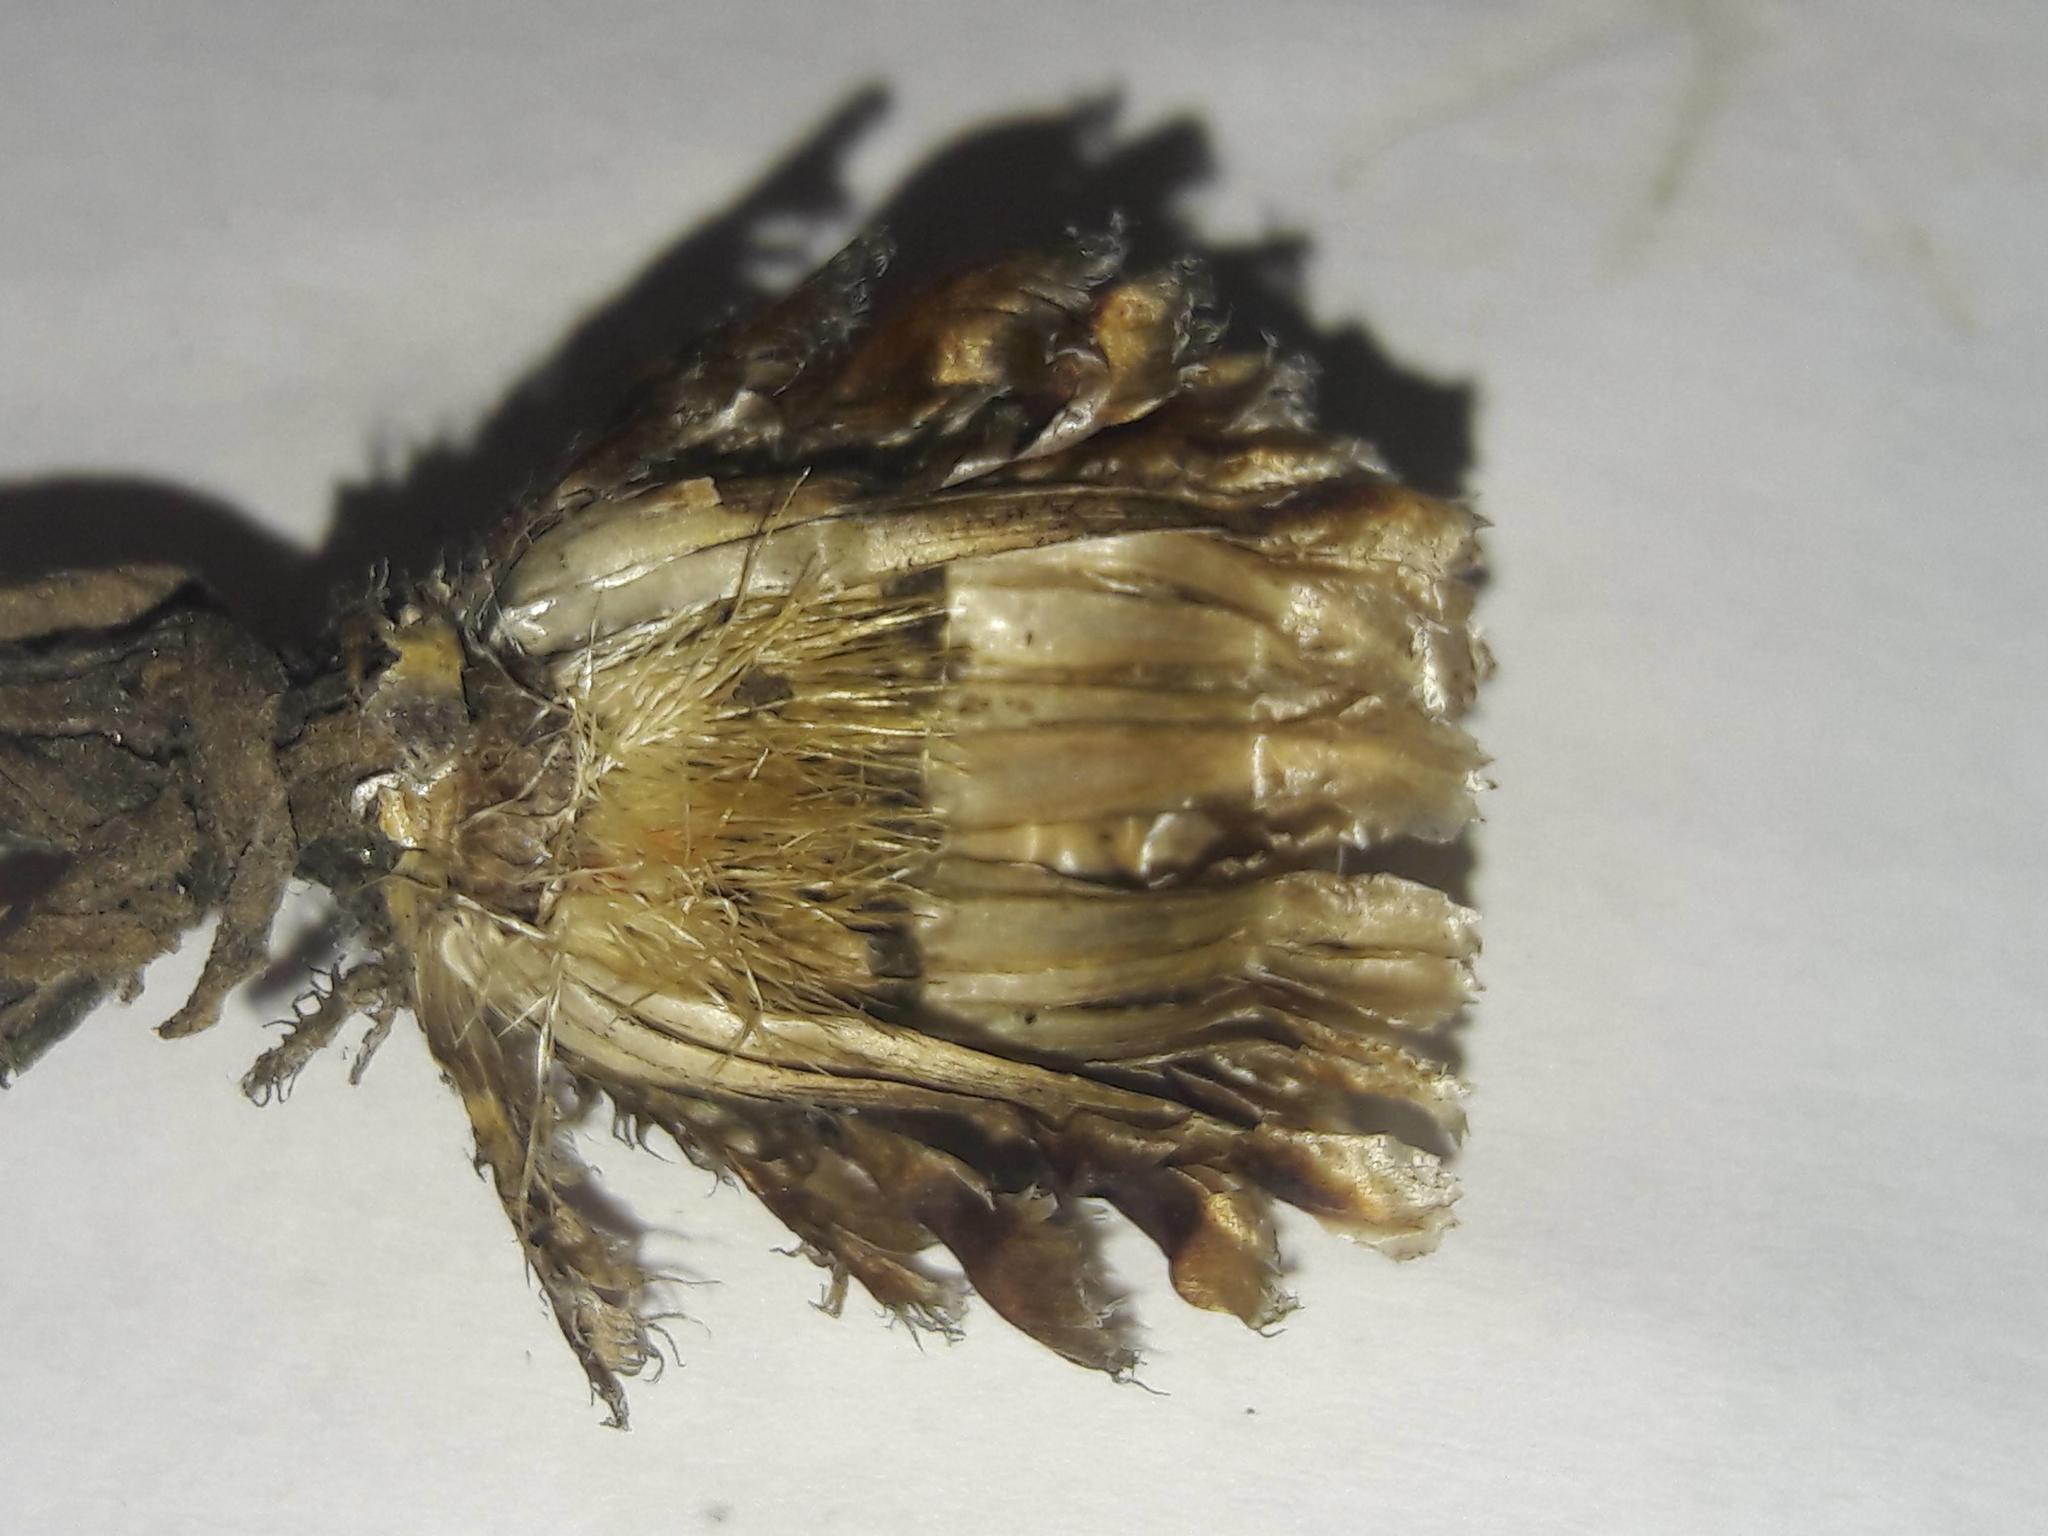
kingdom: Plantae
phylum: Tracheophyta
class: Magnoliopsida
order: Asterales
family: Asteraceae
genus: Centaurea
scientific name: Centaurea jacea
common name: Brown knapweed
